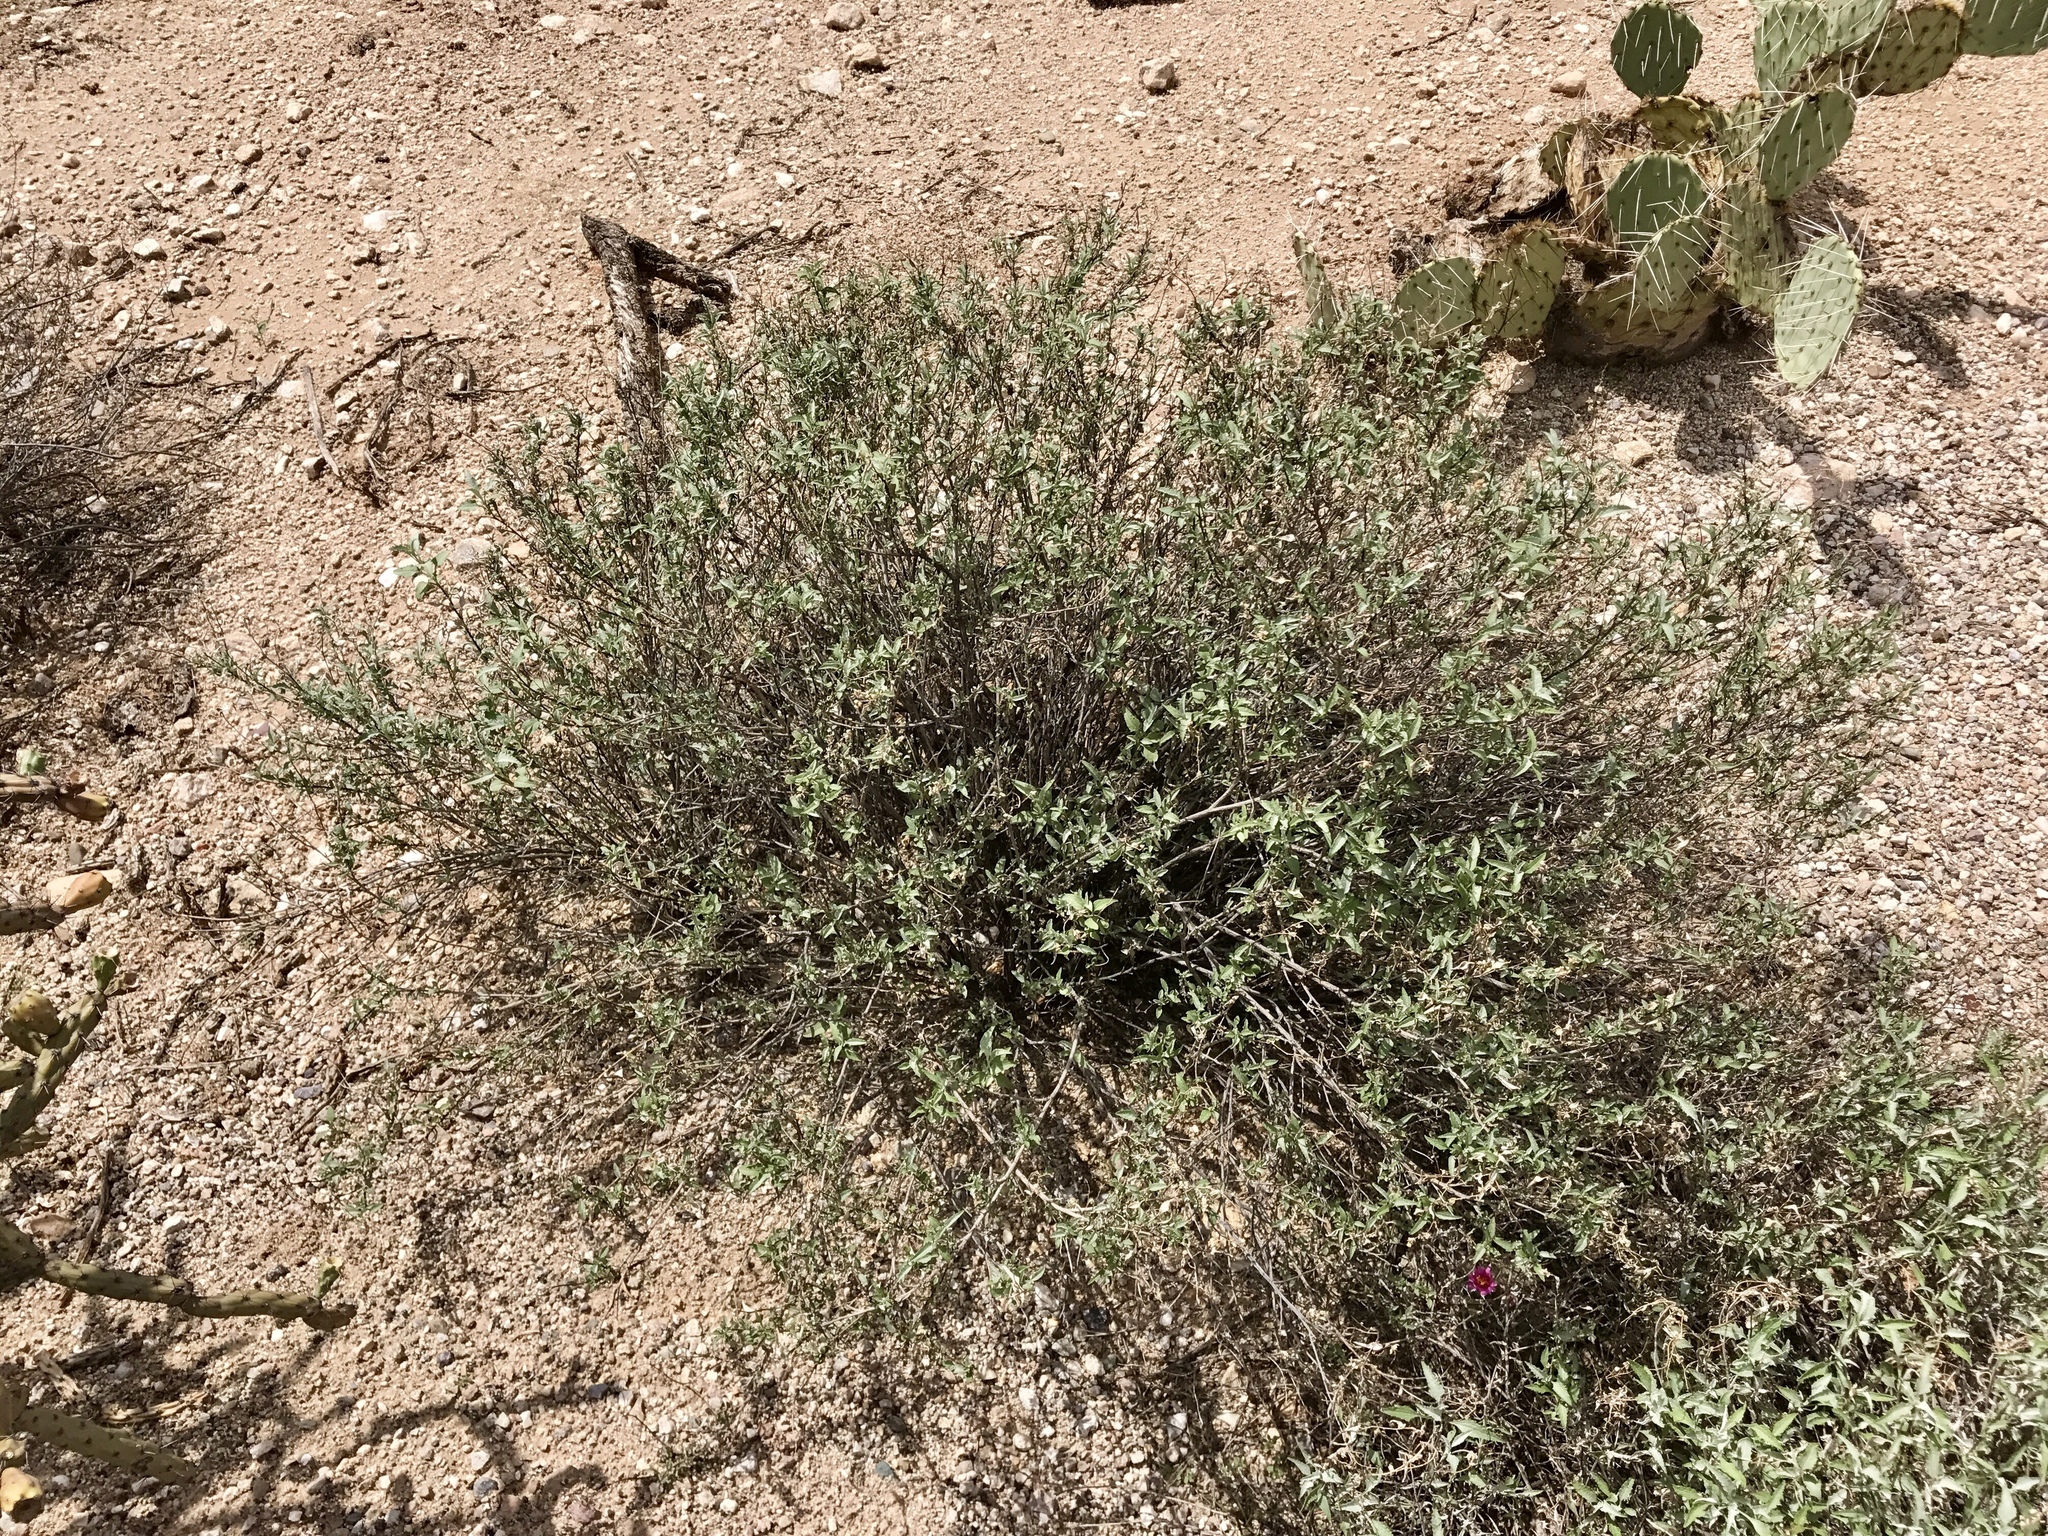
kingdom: Plantae
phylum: Tracheophyta
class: Magnoliopsida
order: Asterales
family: Asteraceae
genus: Ambrosia
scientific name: Ambrosia deltoidea
